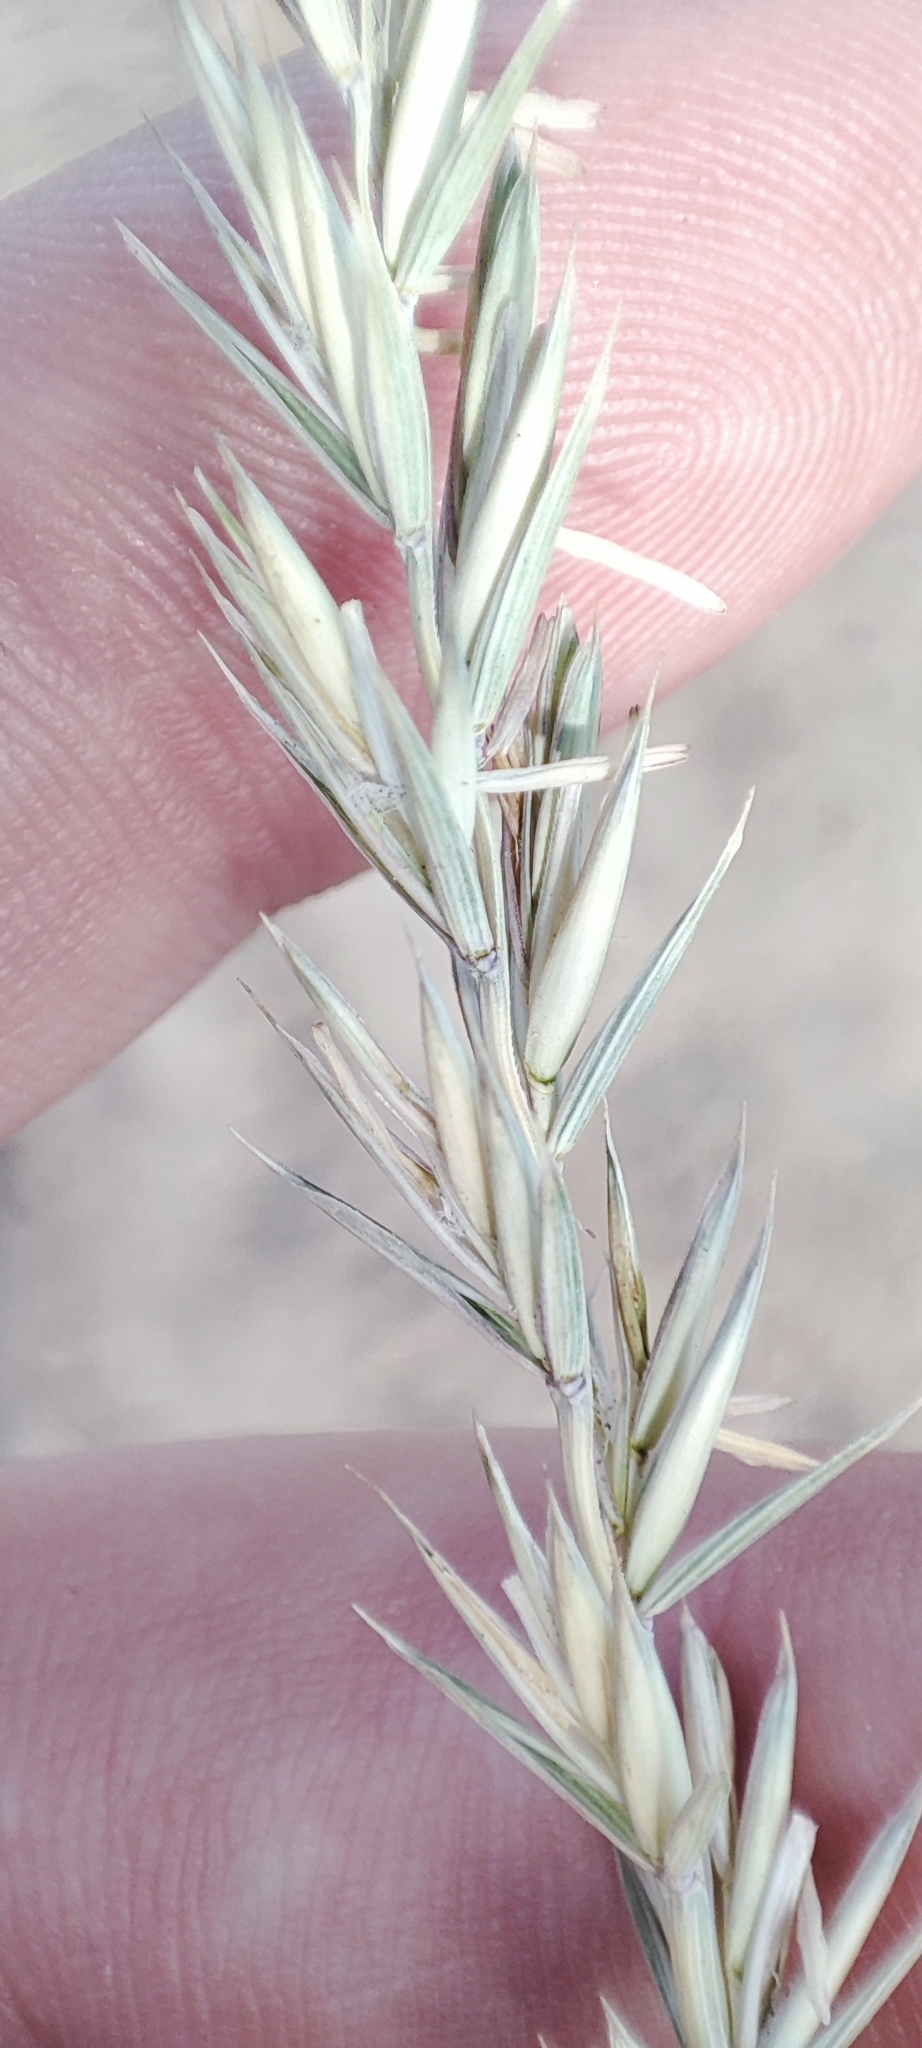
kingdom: Plantae
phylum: Tracheophyta
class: Liliopsida
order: Poales
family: Poaceae
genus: Elymus
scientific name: Elymus repens
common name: Quackgrass
